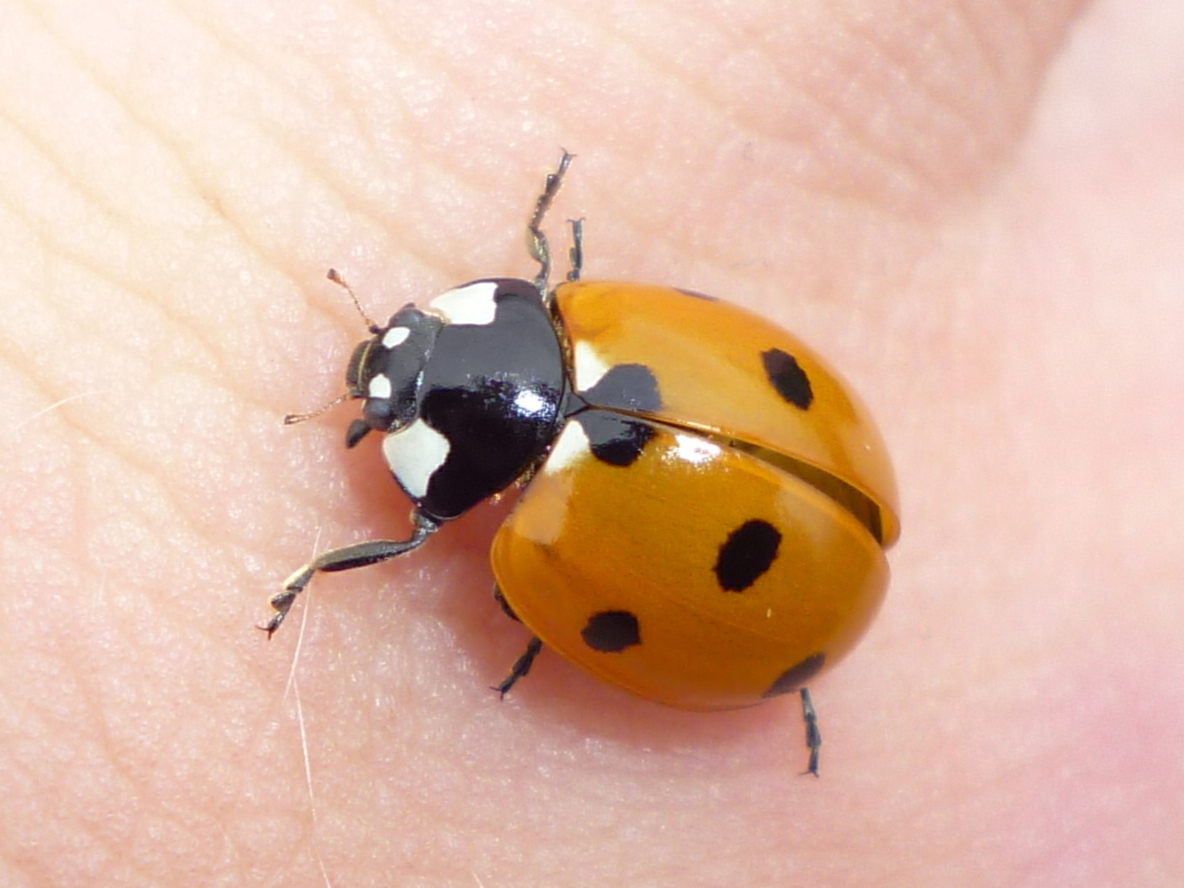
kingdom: Animalia
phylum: Arthropoda
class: Insecta
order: Coleoptera
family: Coccinellidae
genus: Coccinella
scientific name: Coccinella septempunctata
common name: Sevenspotted lady beetle
